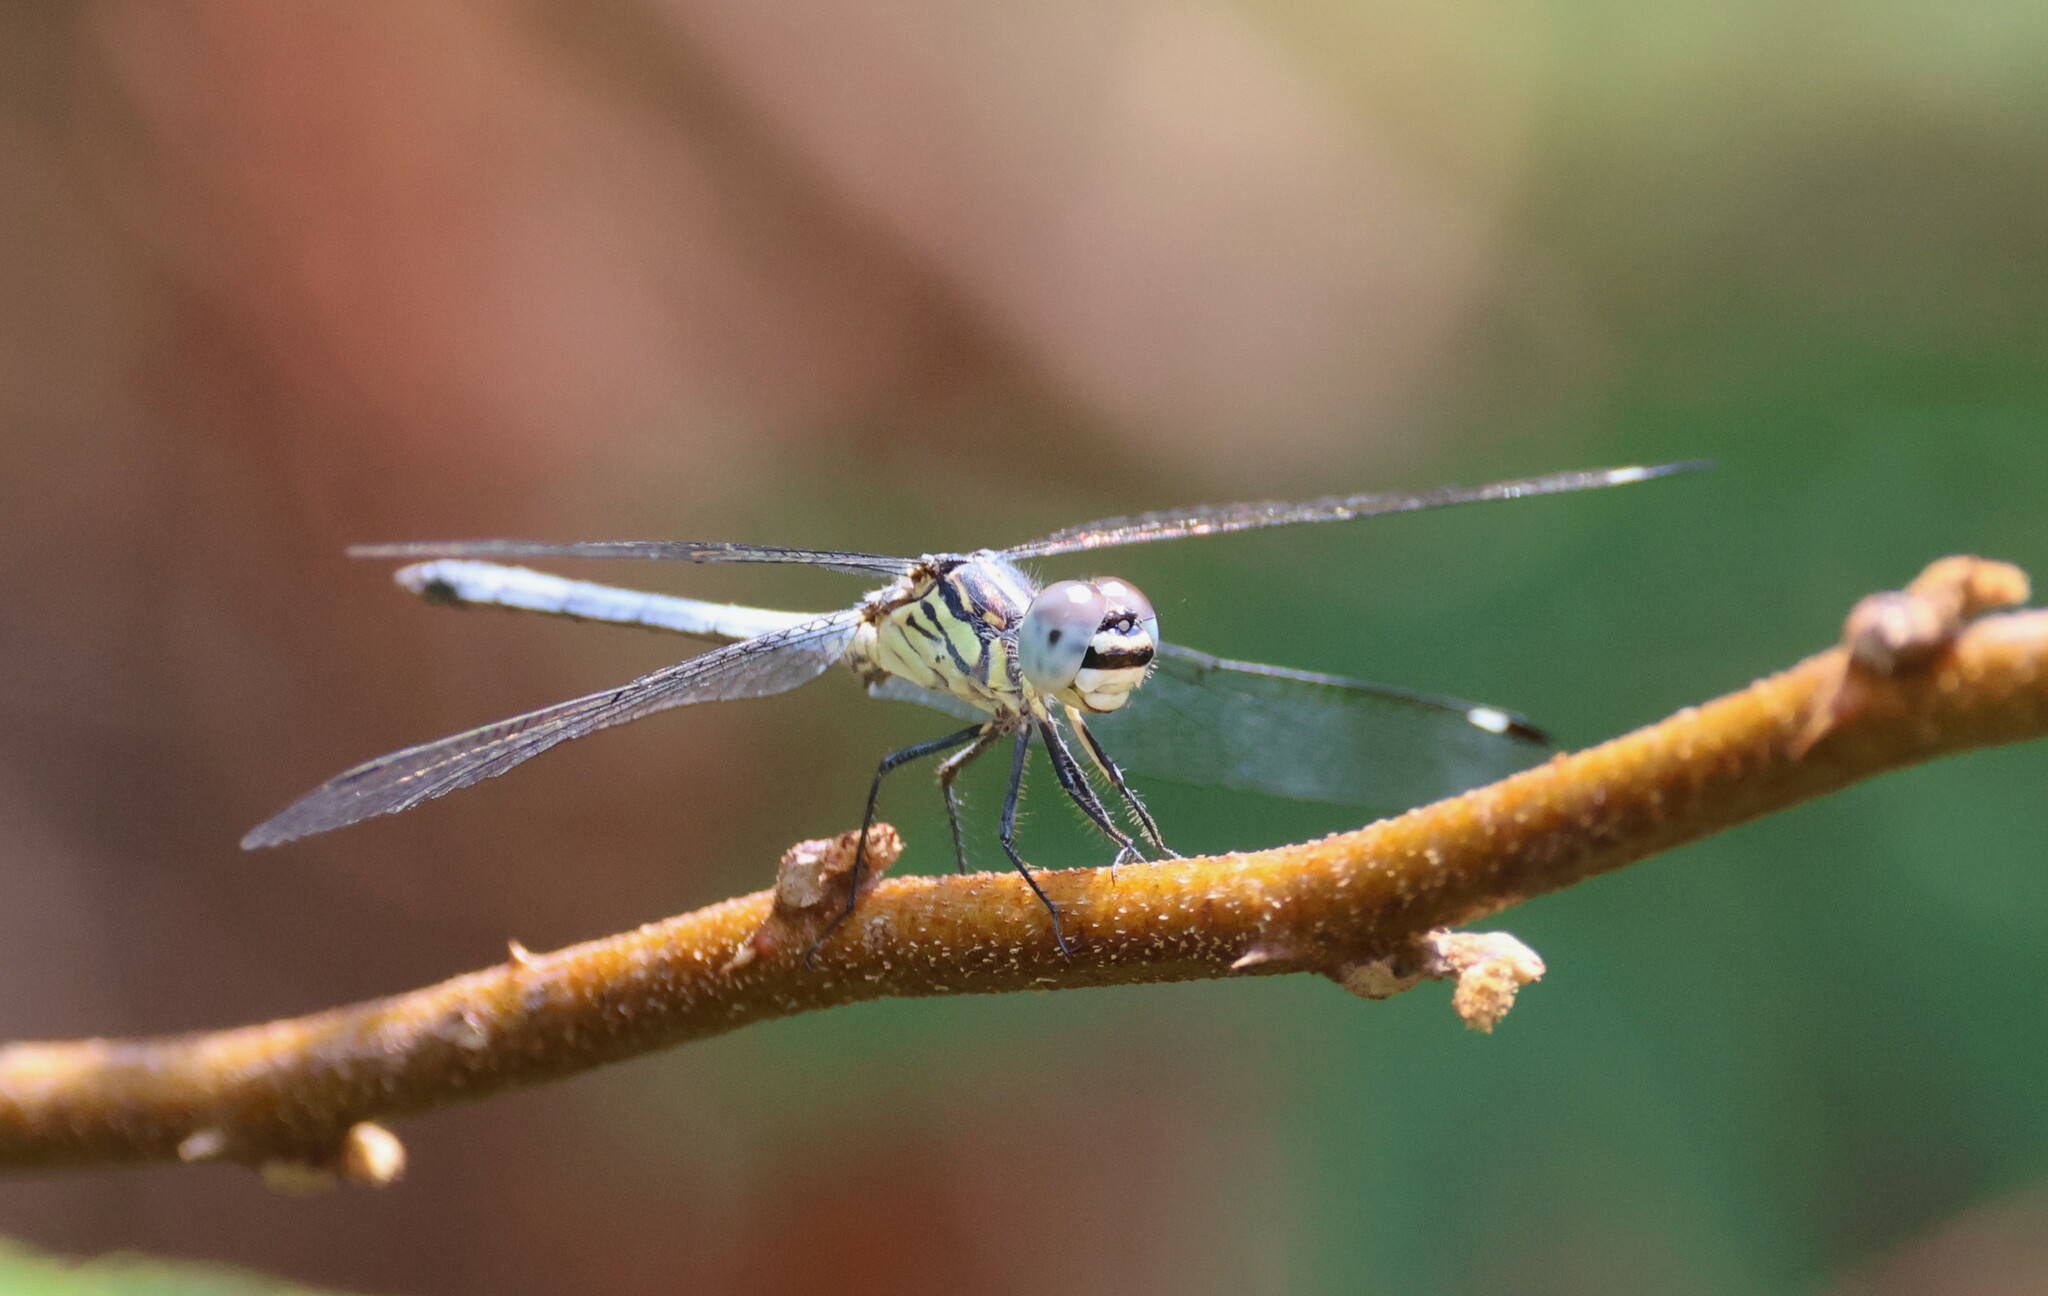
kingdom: Animalia
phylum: Arthropoda
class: Insecta
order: Odonata
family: Libellulidae
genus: Hemistigma
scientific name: Hemistigma albipunctum
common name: African pied-spot
